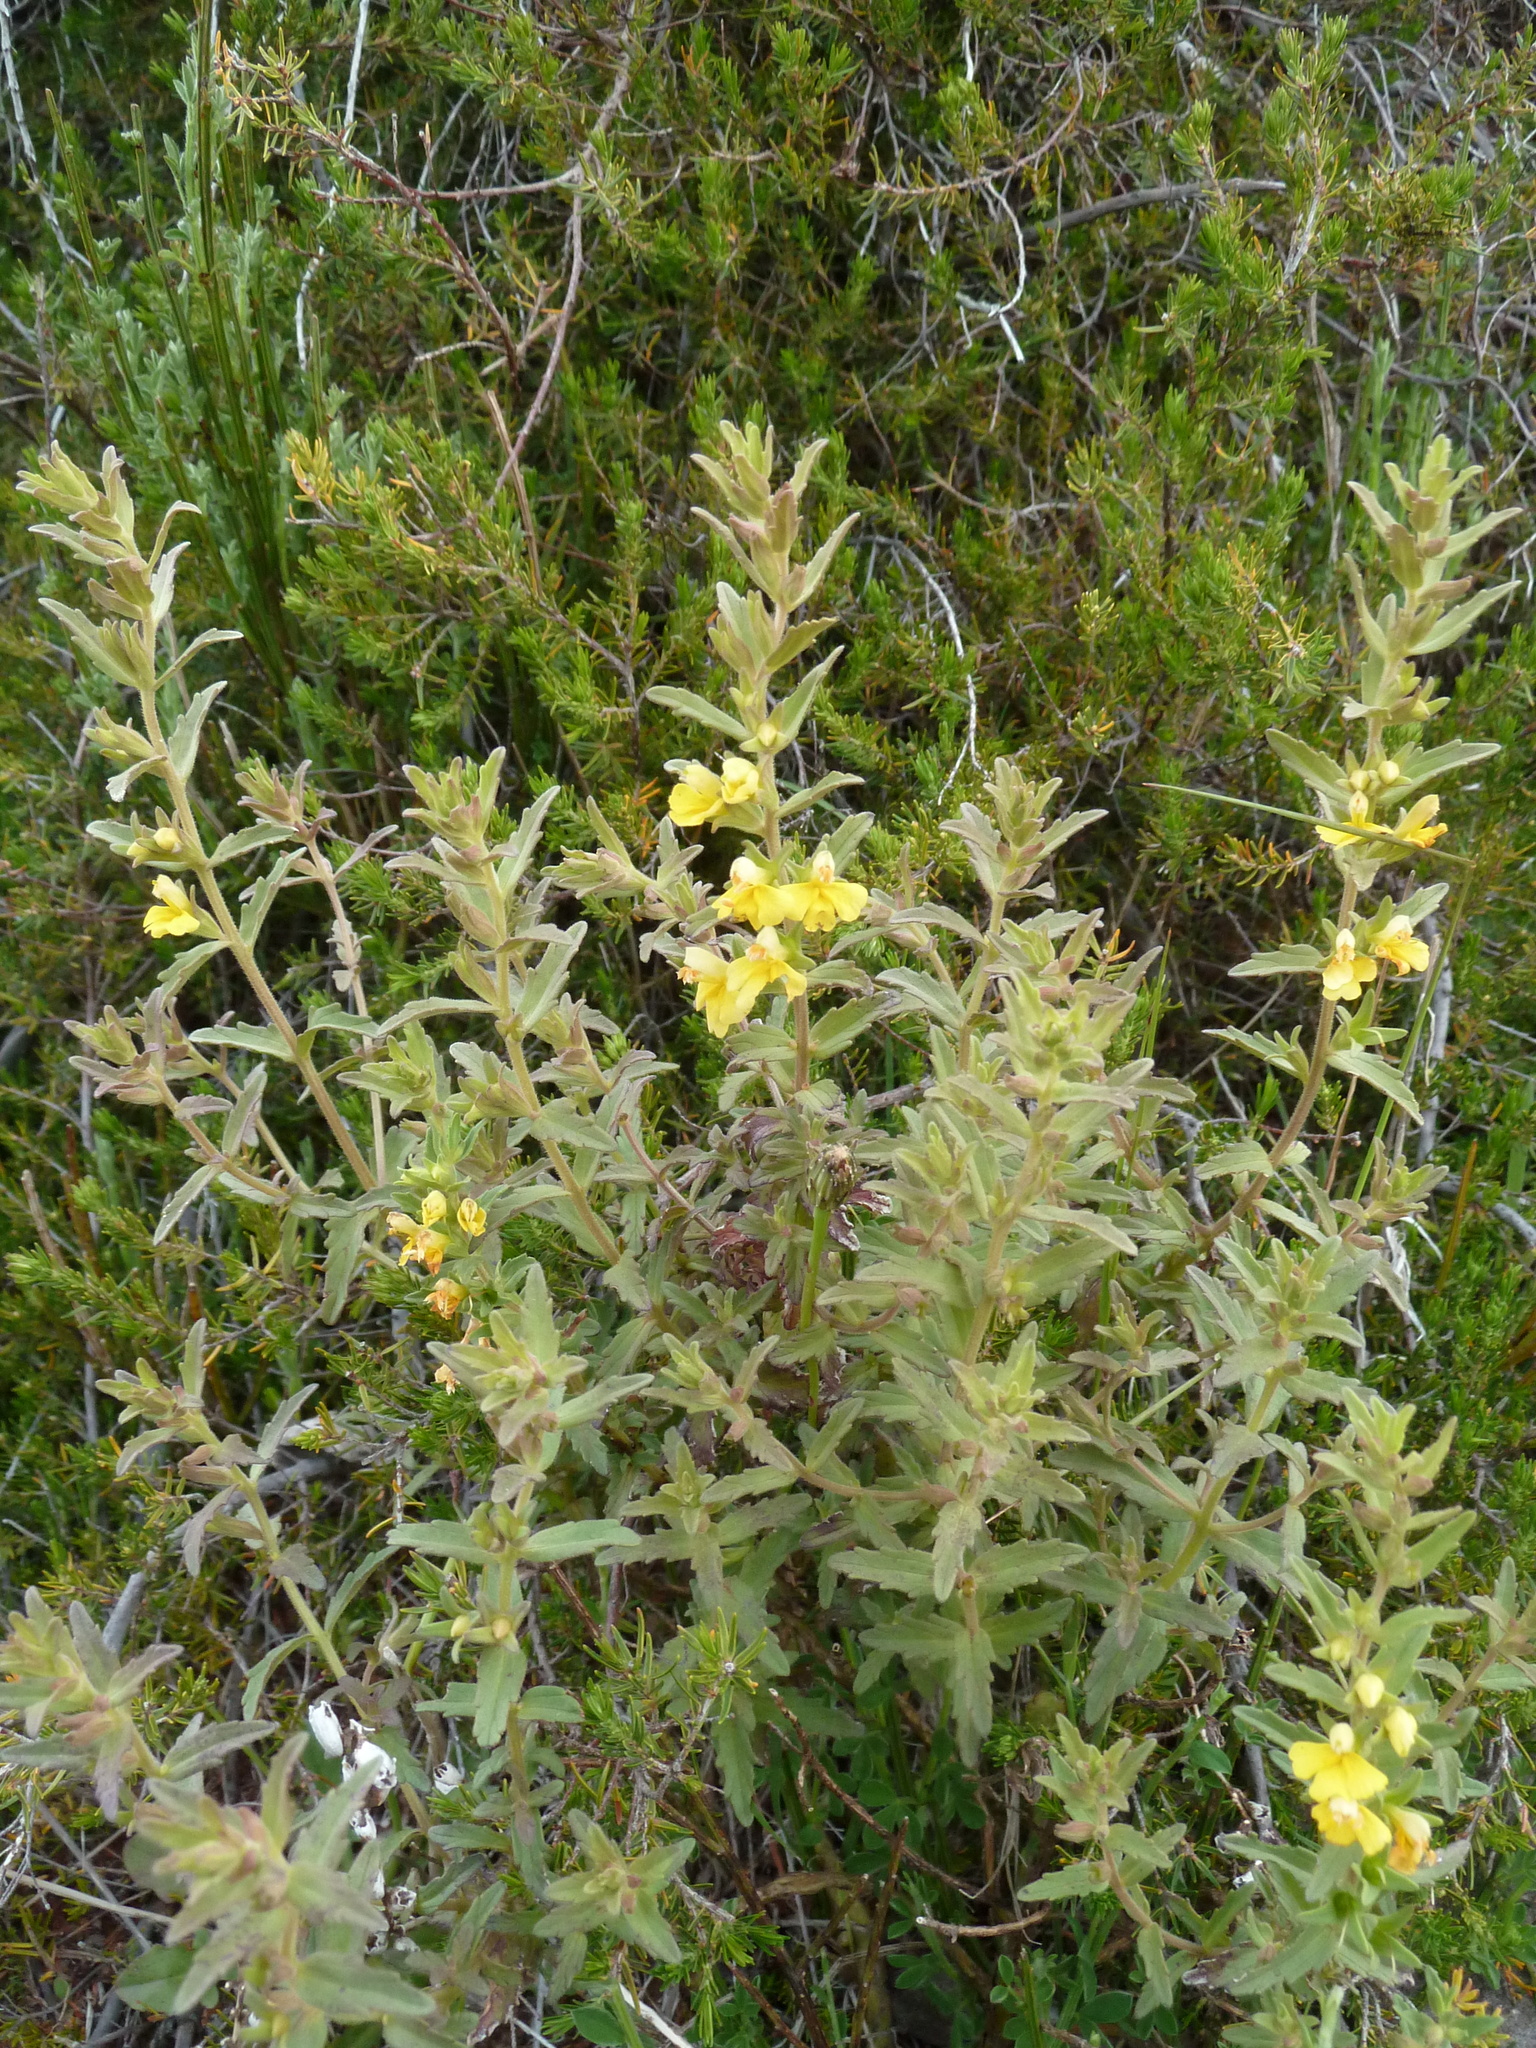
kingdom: Plantae
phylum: Tracheophyta
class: Magnoliopsida
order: Lamiales
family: Orobanchaceae
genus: Odontites
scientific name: Odontites hollianus
